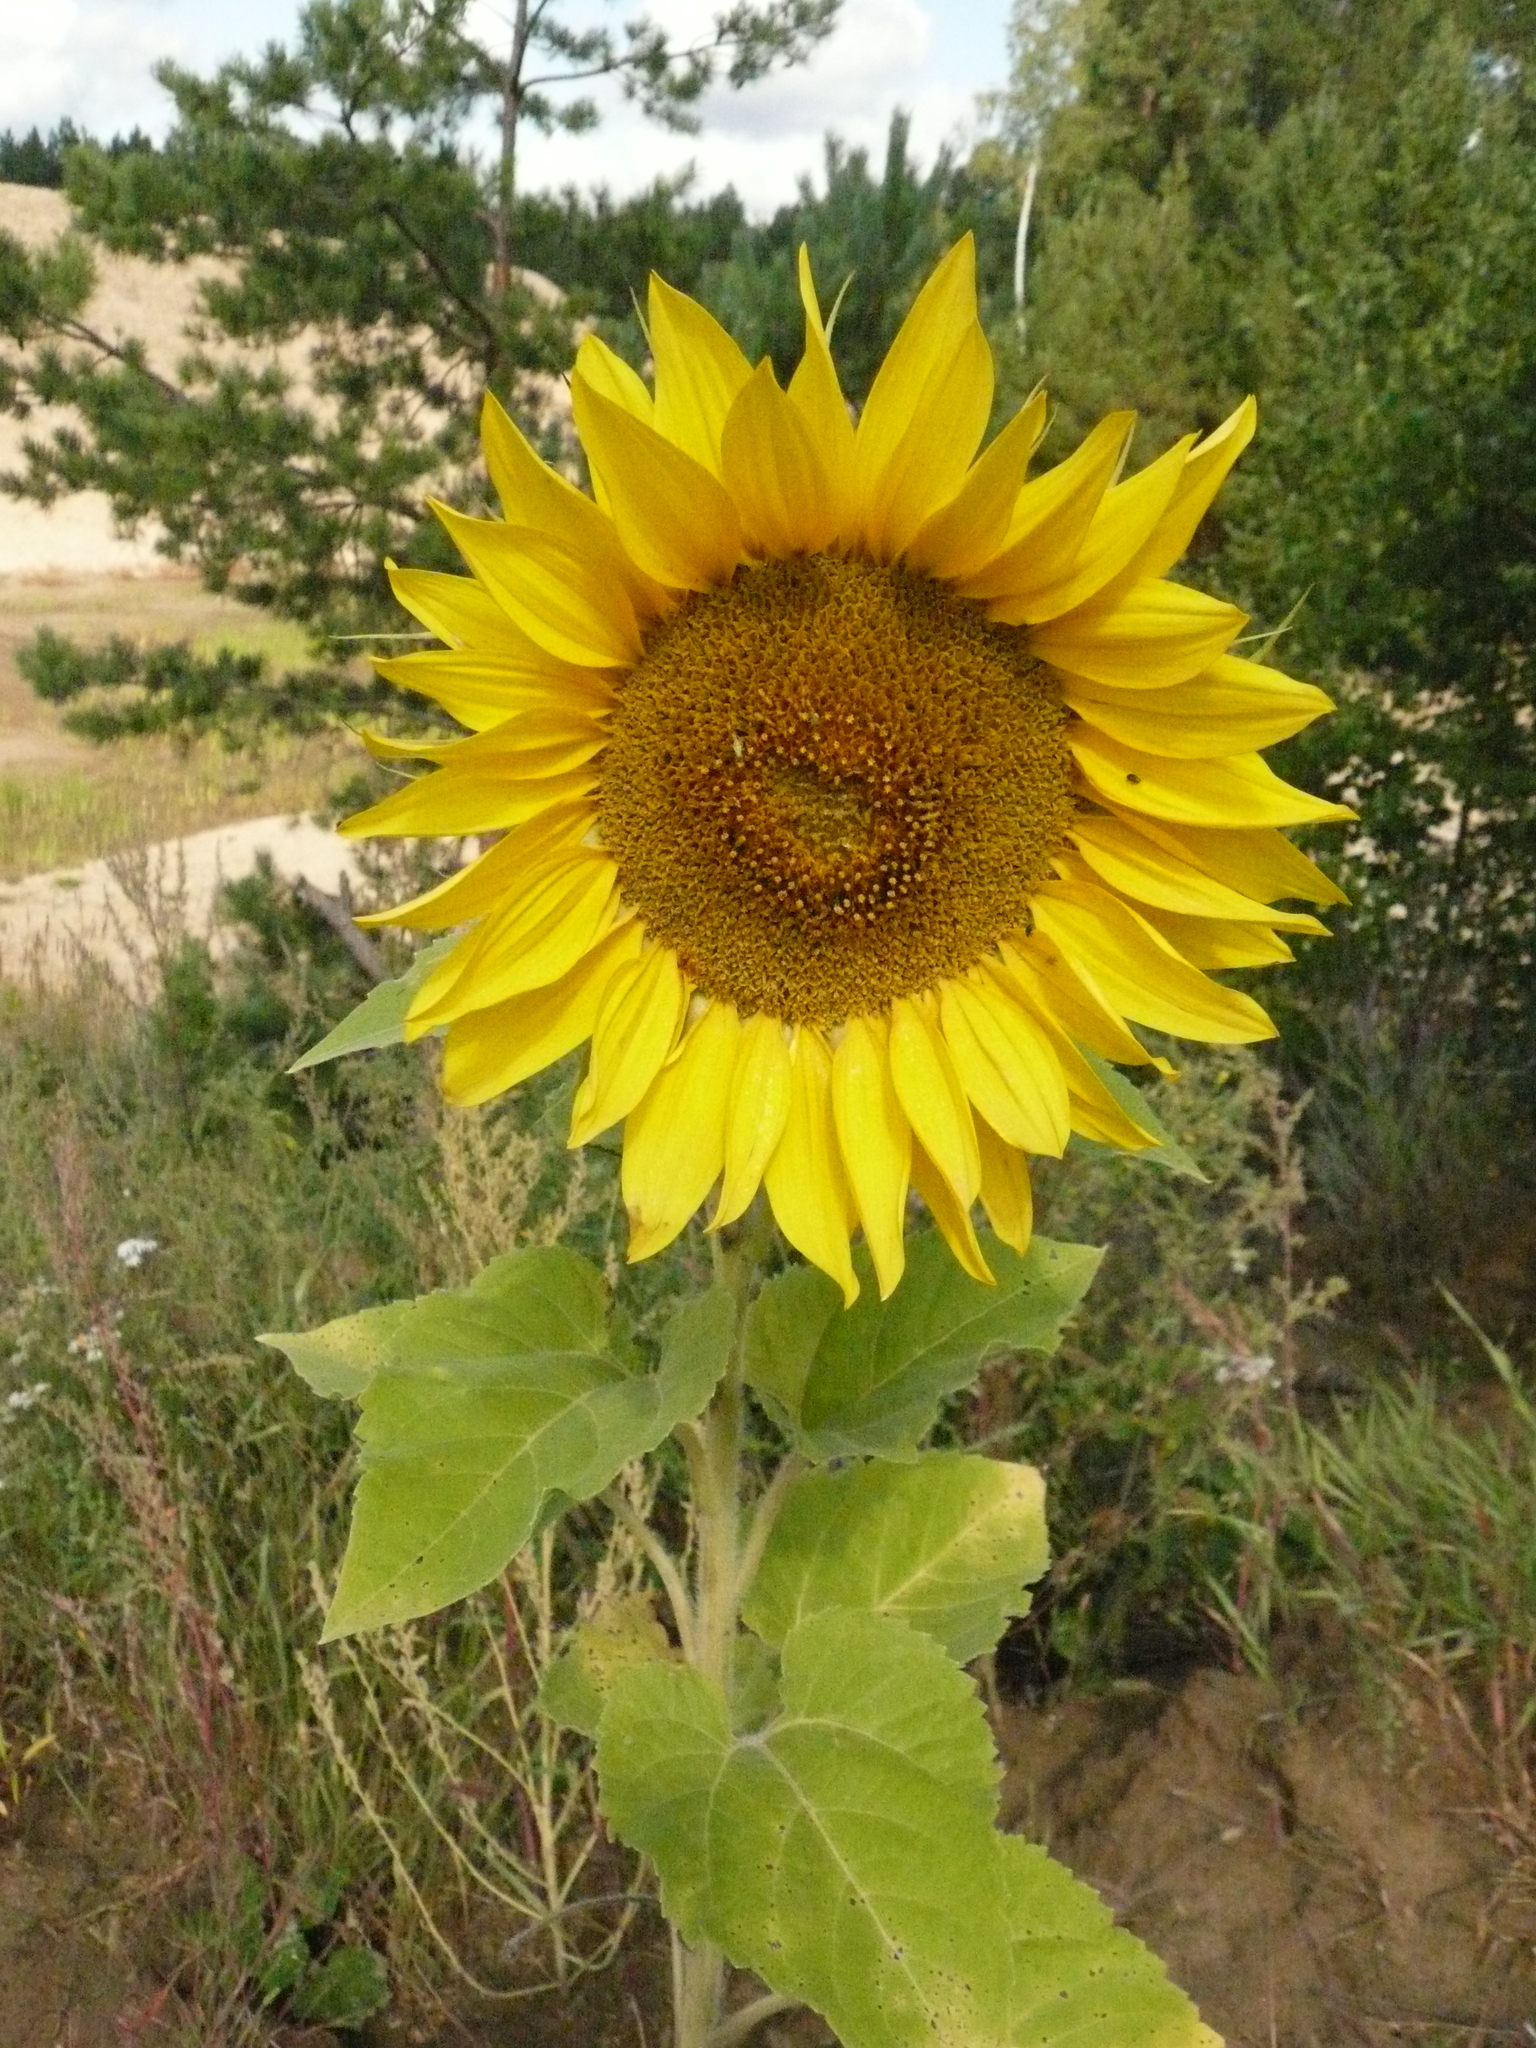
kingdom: Plantae
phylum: Tracheophyta
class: Magnoliopsida
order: Asterales
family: Asteraceae
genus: Helianthus
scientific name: Helianthus annuus
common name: Sunflower
